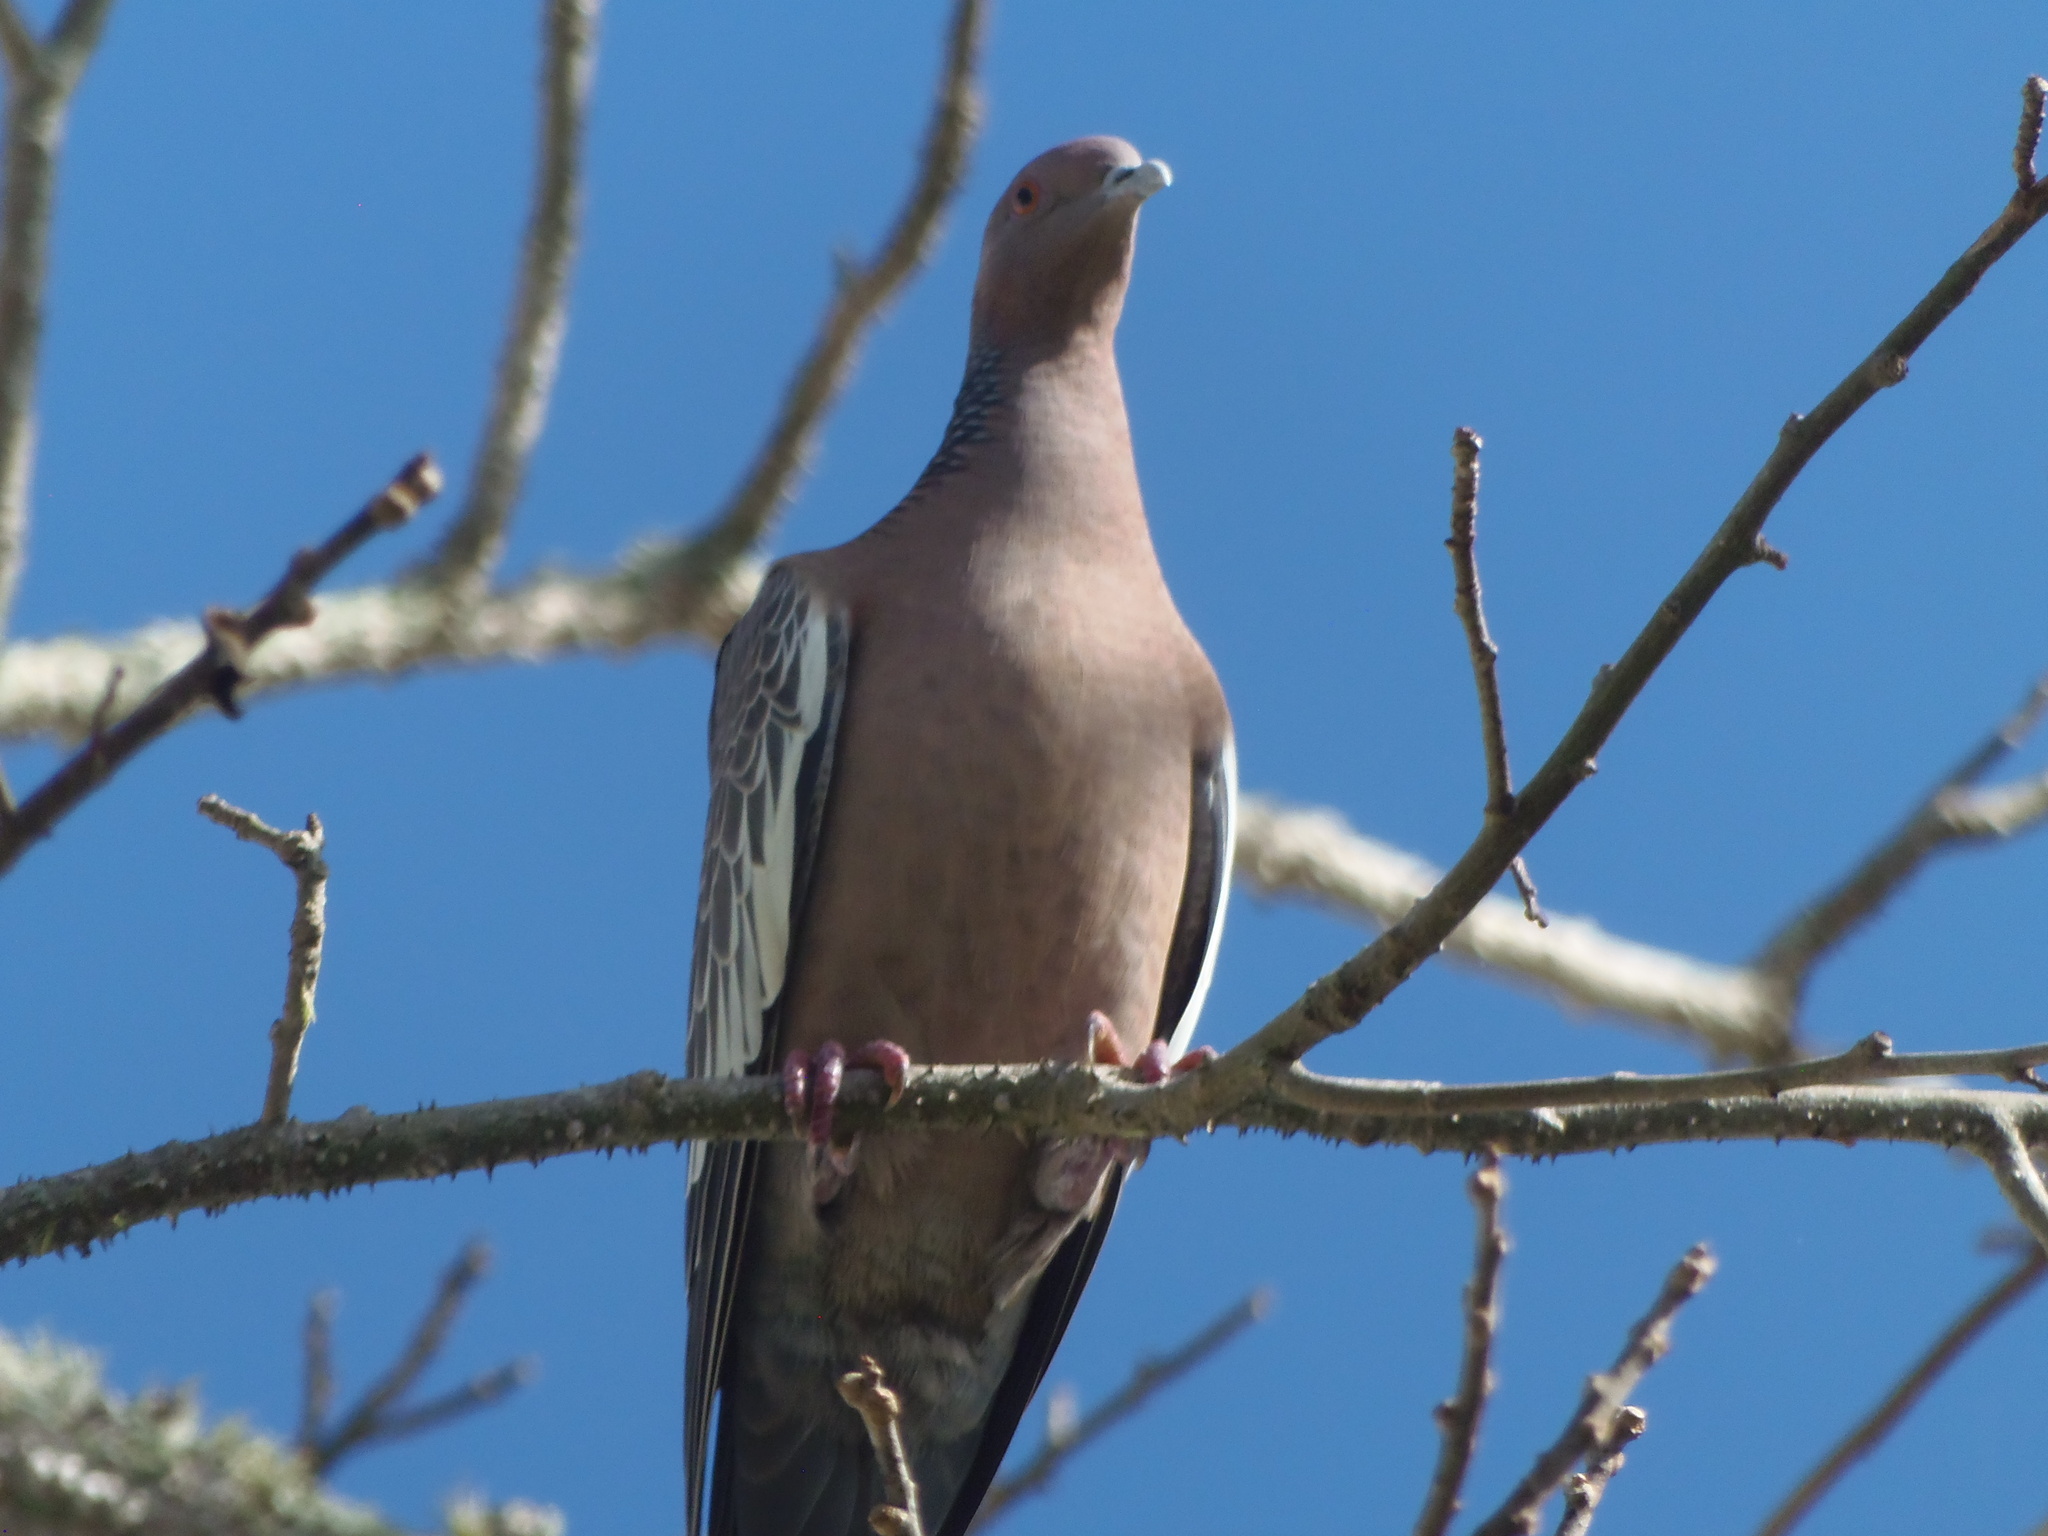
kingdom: Animalia
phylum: Chordata
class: Aves
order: Columbiformes
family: Columbidae
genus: Patagioenas
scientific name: Patagioenas picazuro
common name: Picazuro pigeon
